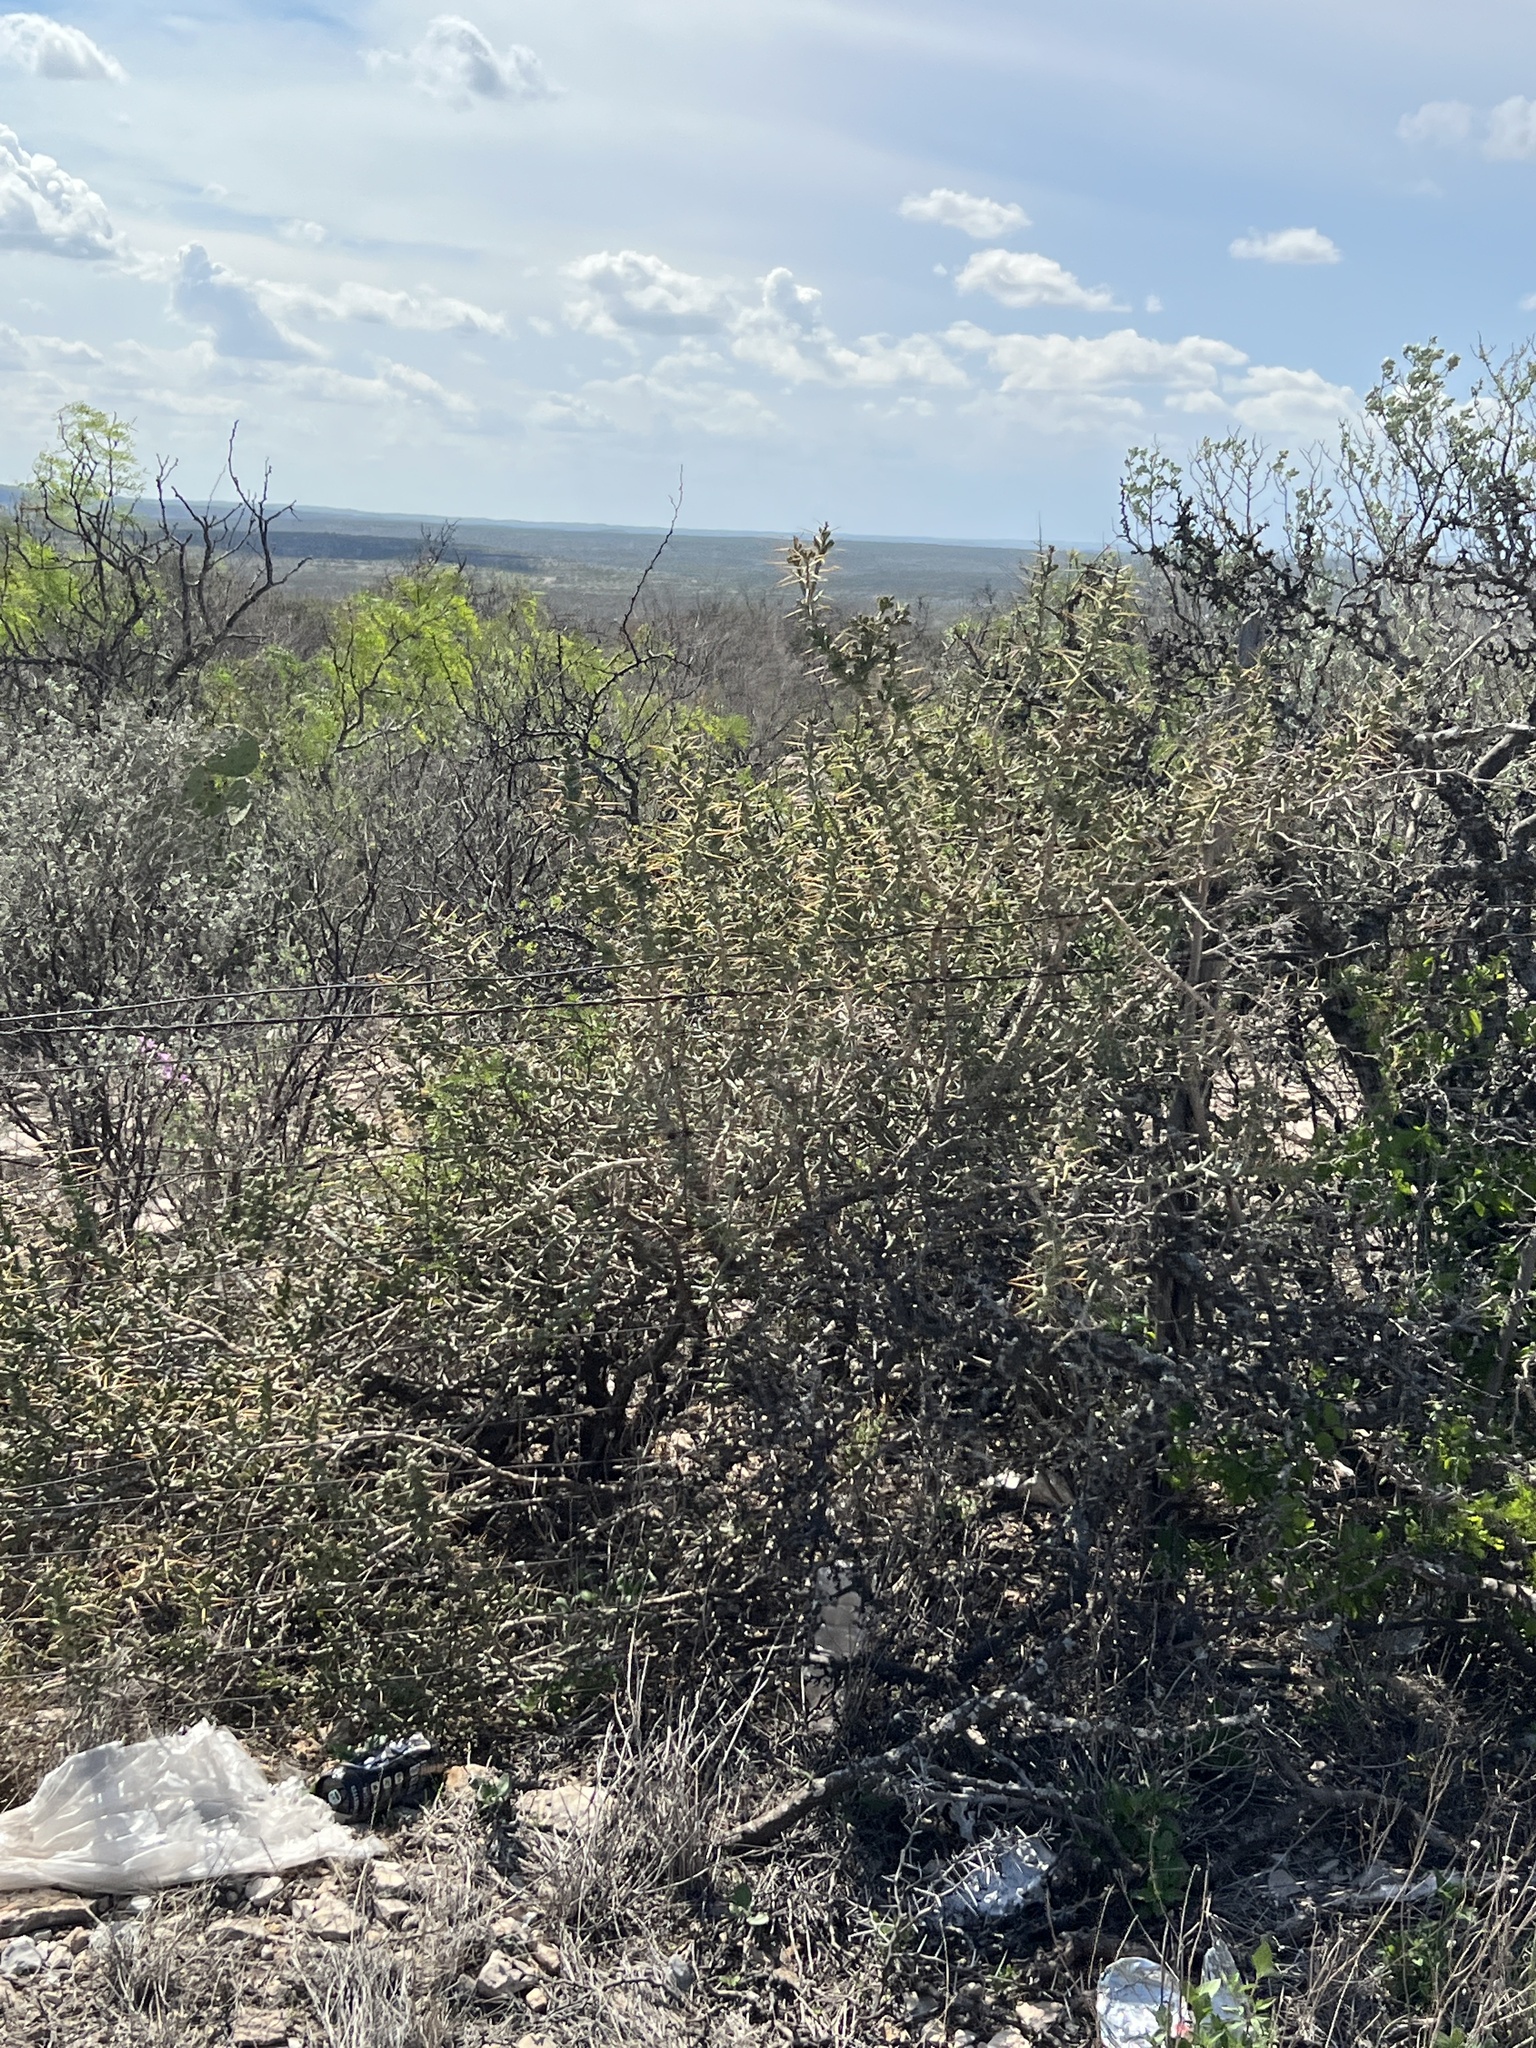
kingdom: Plantae
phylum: Tracheophyta
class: Magnoliopsida
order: Caryophyllales
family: Cactaceae
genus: Cylindropuntia
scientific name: Cylindropuntia leptocaulis
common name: Christmas cactus
